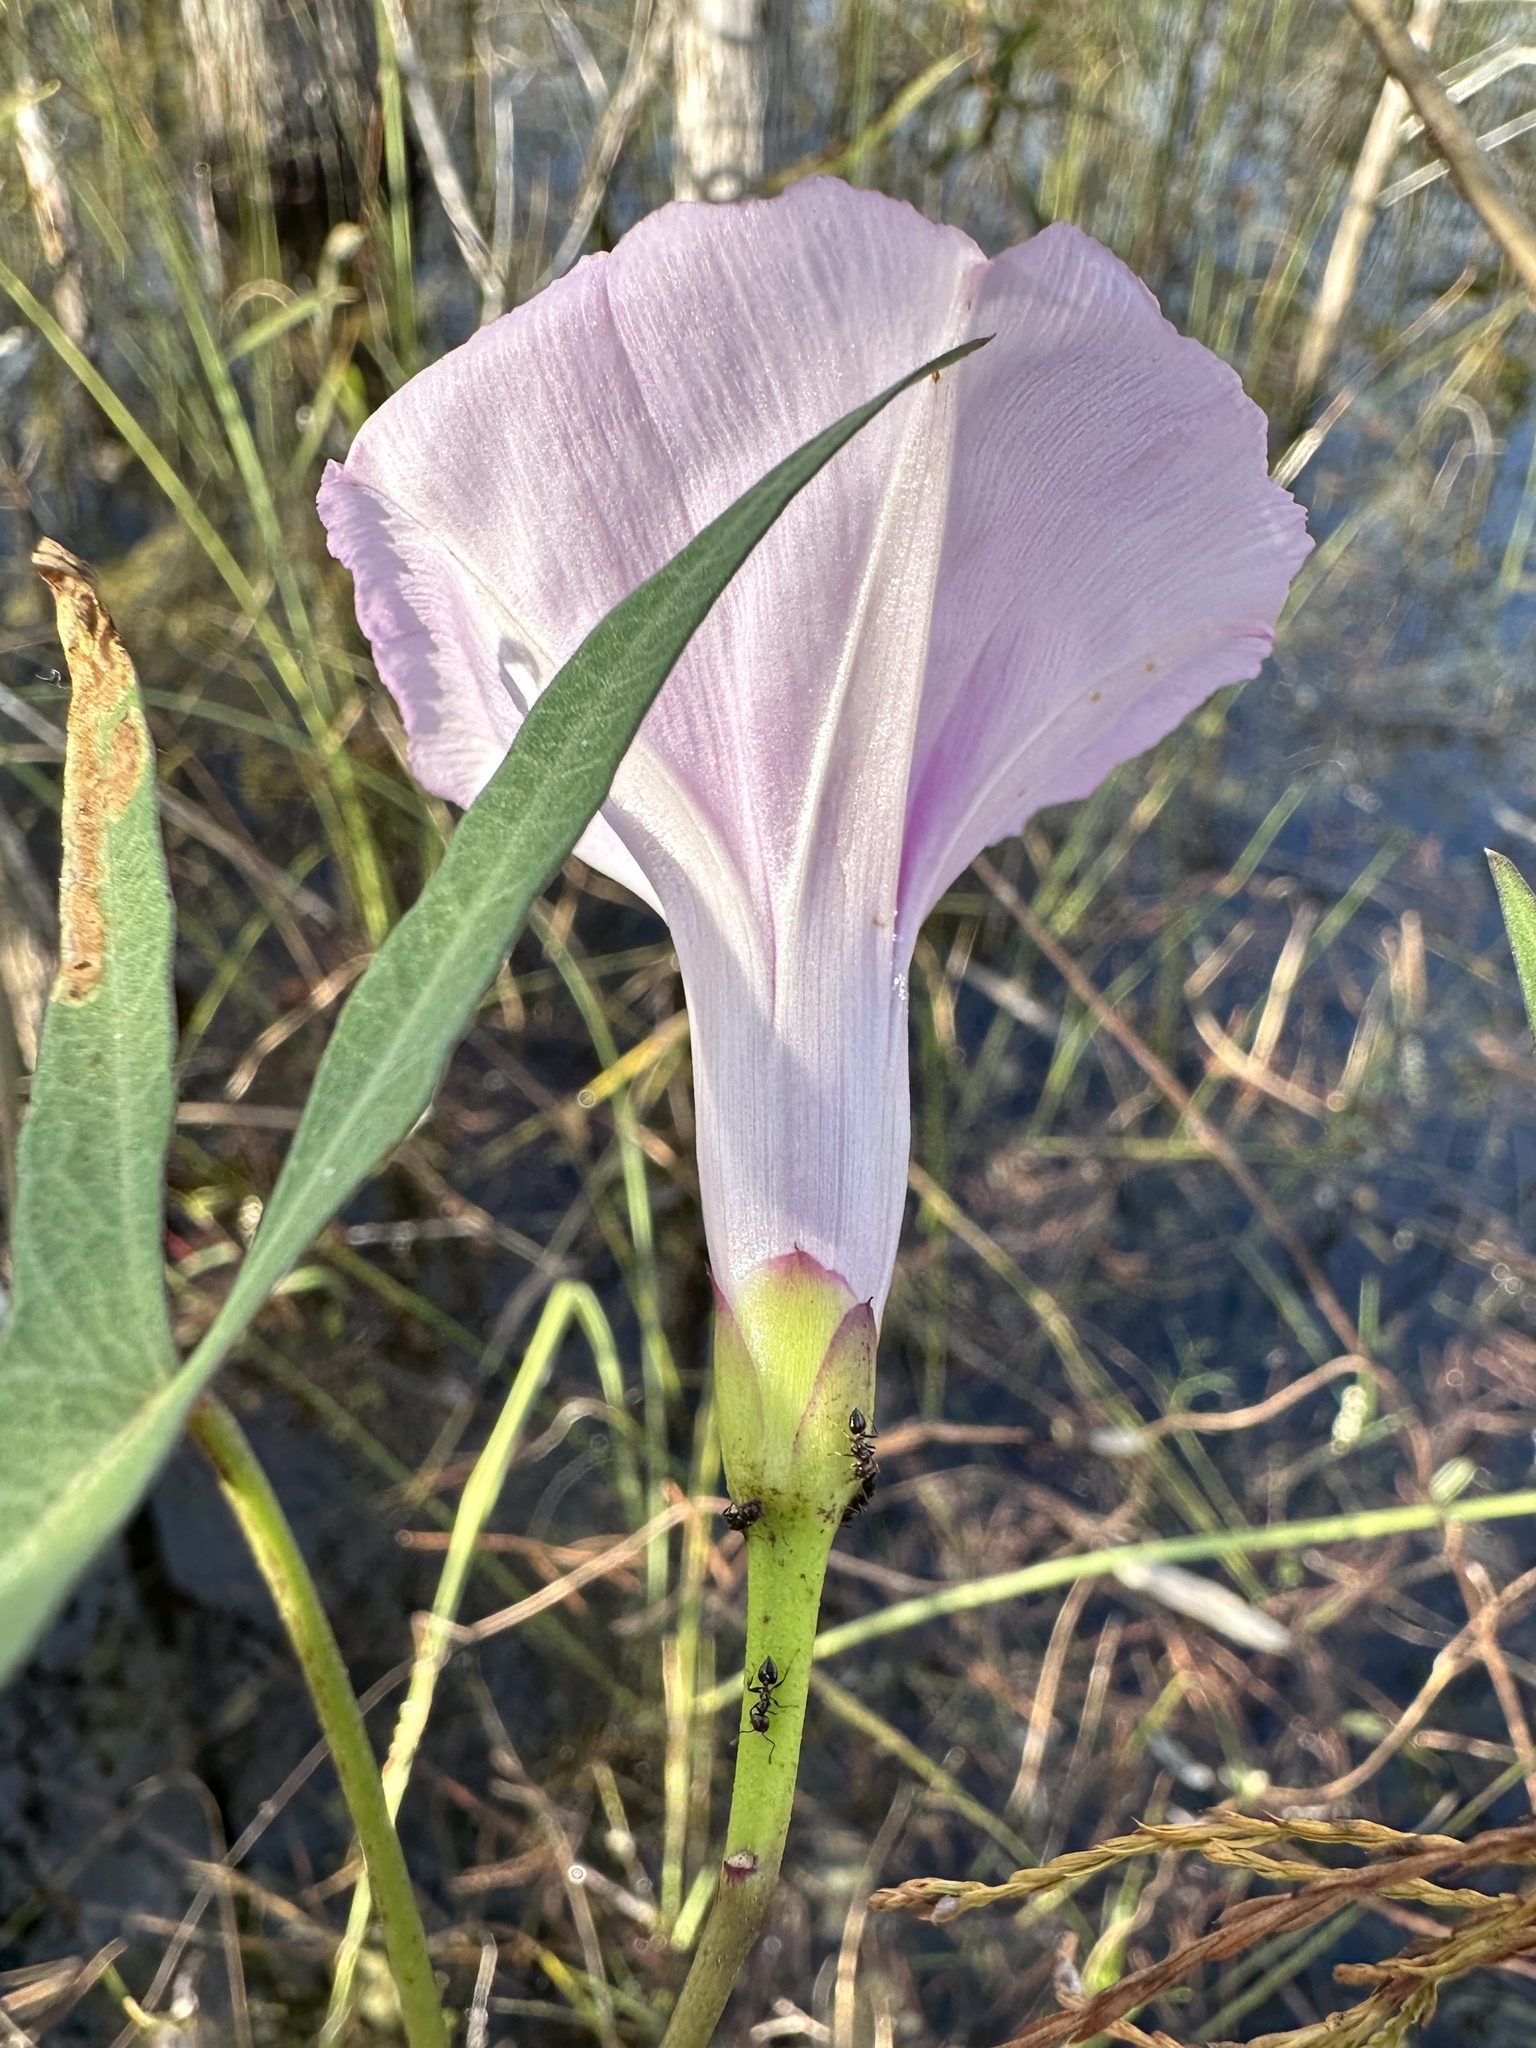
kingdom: Plantae
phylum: Tracheophyta
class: Magnoliopsida
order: Solanales
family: Convolvulaceae
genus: Ipomoea
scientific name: Ipomoea sagittata
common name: Saltmarsh morning glory
